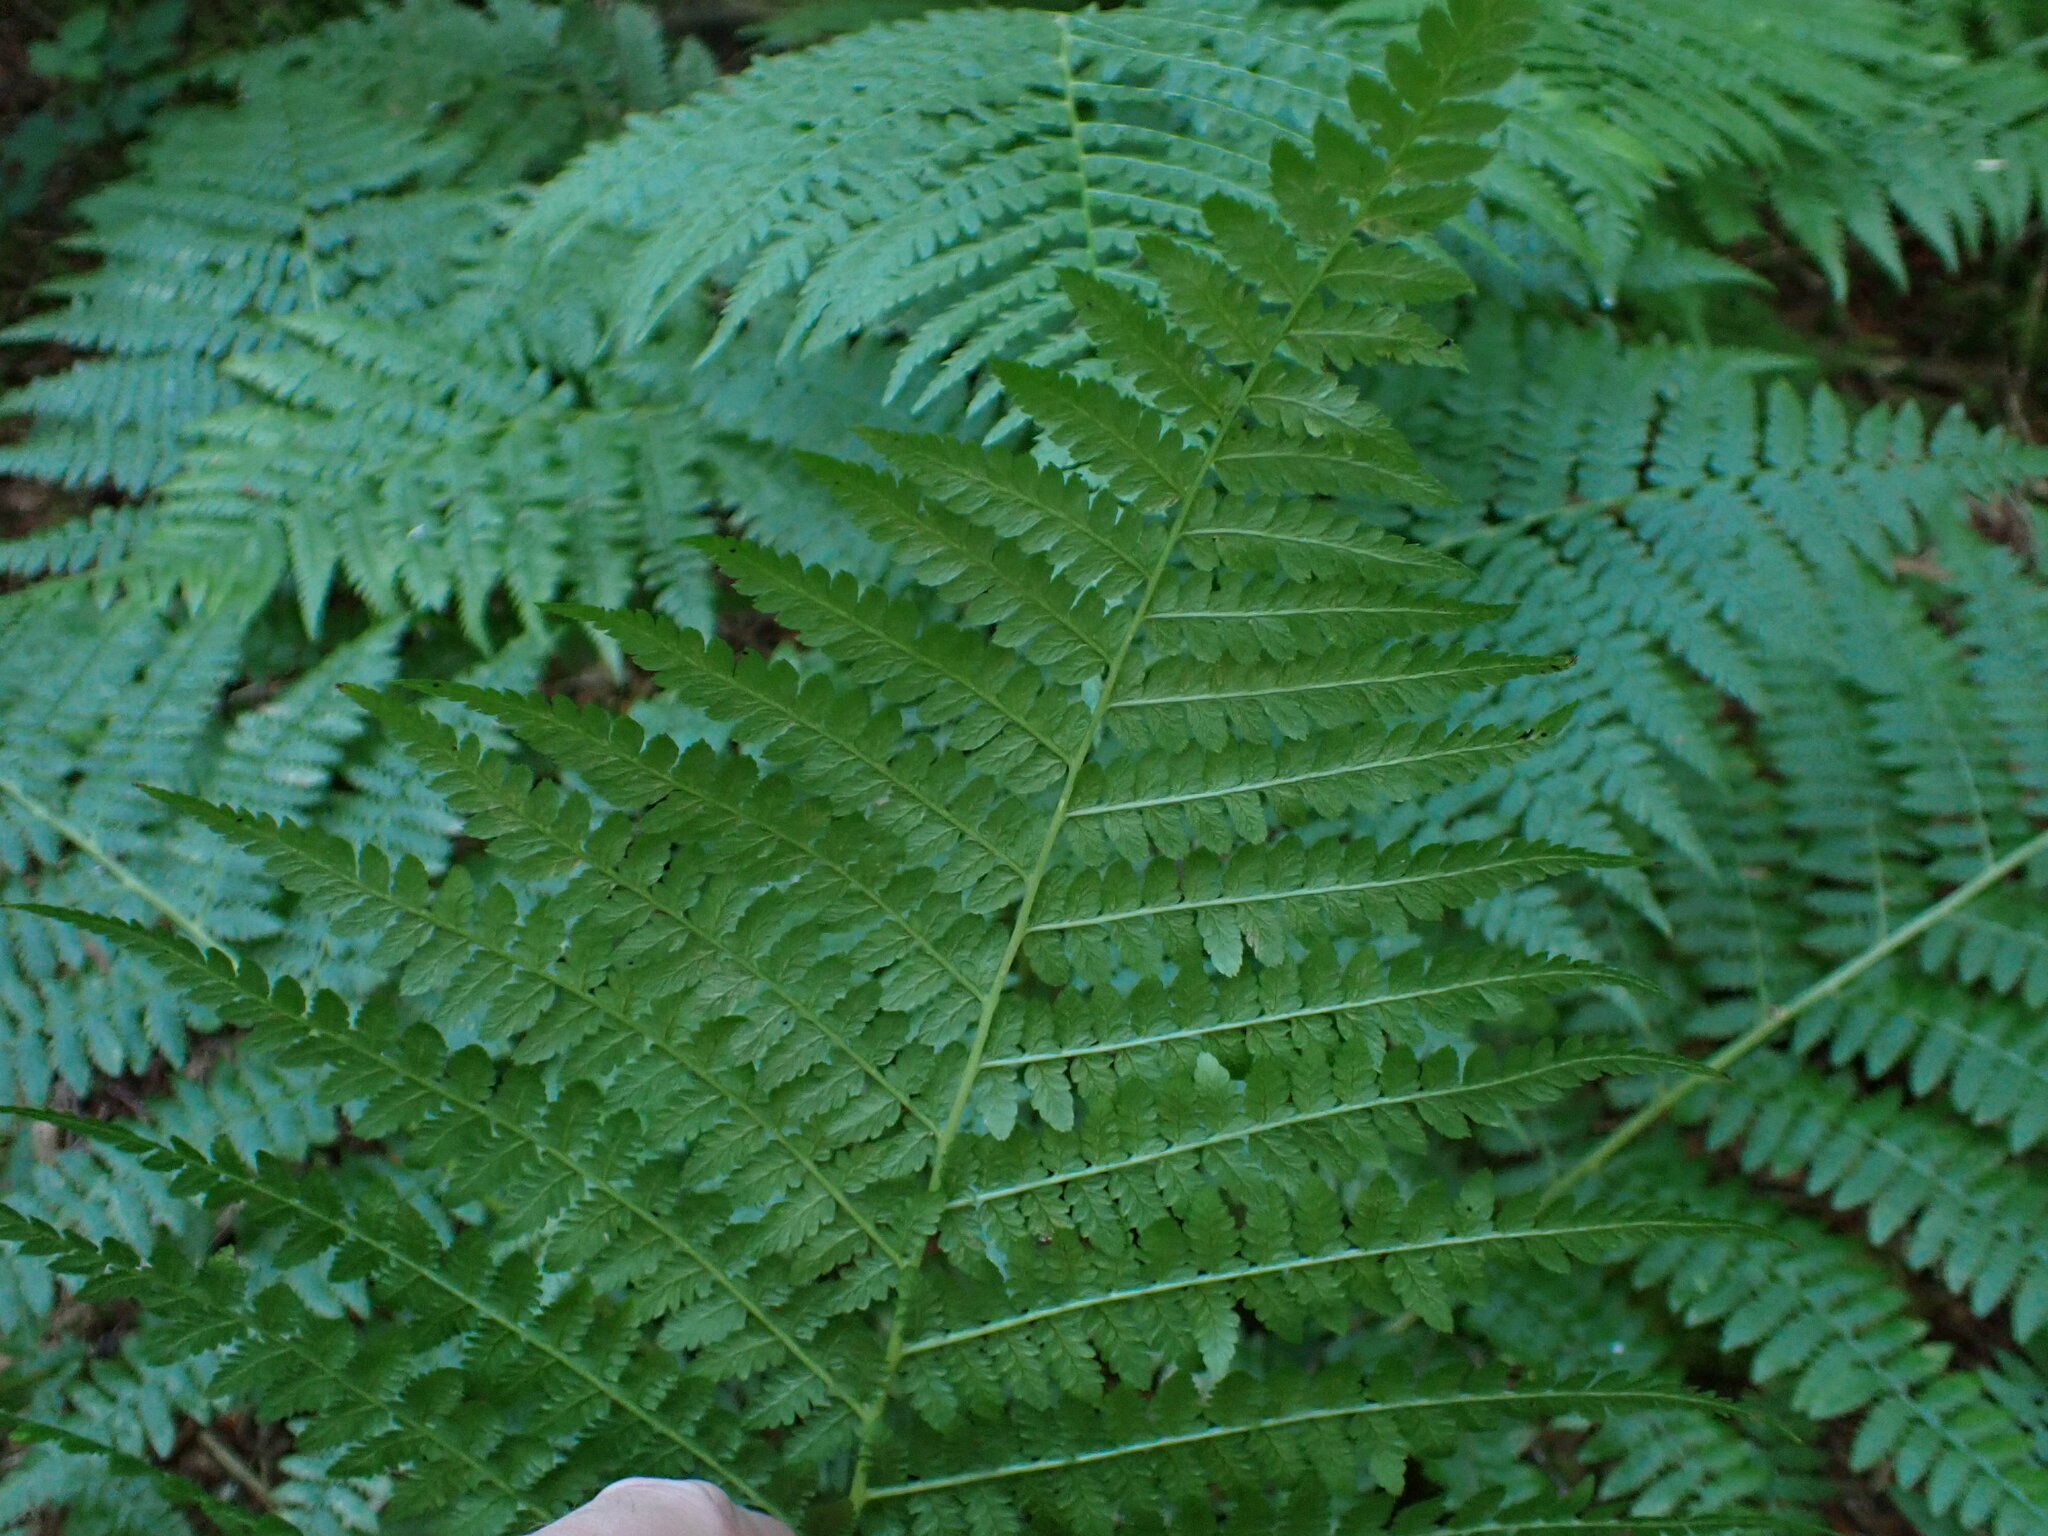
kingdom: Plantae
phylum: Tracheophyta
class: Polypodiopsida
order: Polypodiales
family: Athyriaceae
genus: Athyrium
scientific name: Athyrium filix-femina
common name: Lady fern
